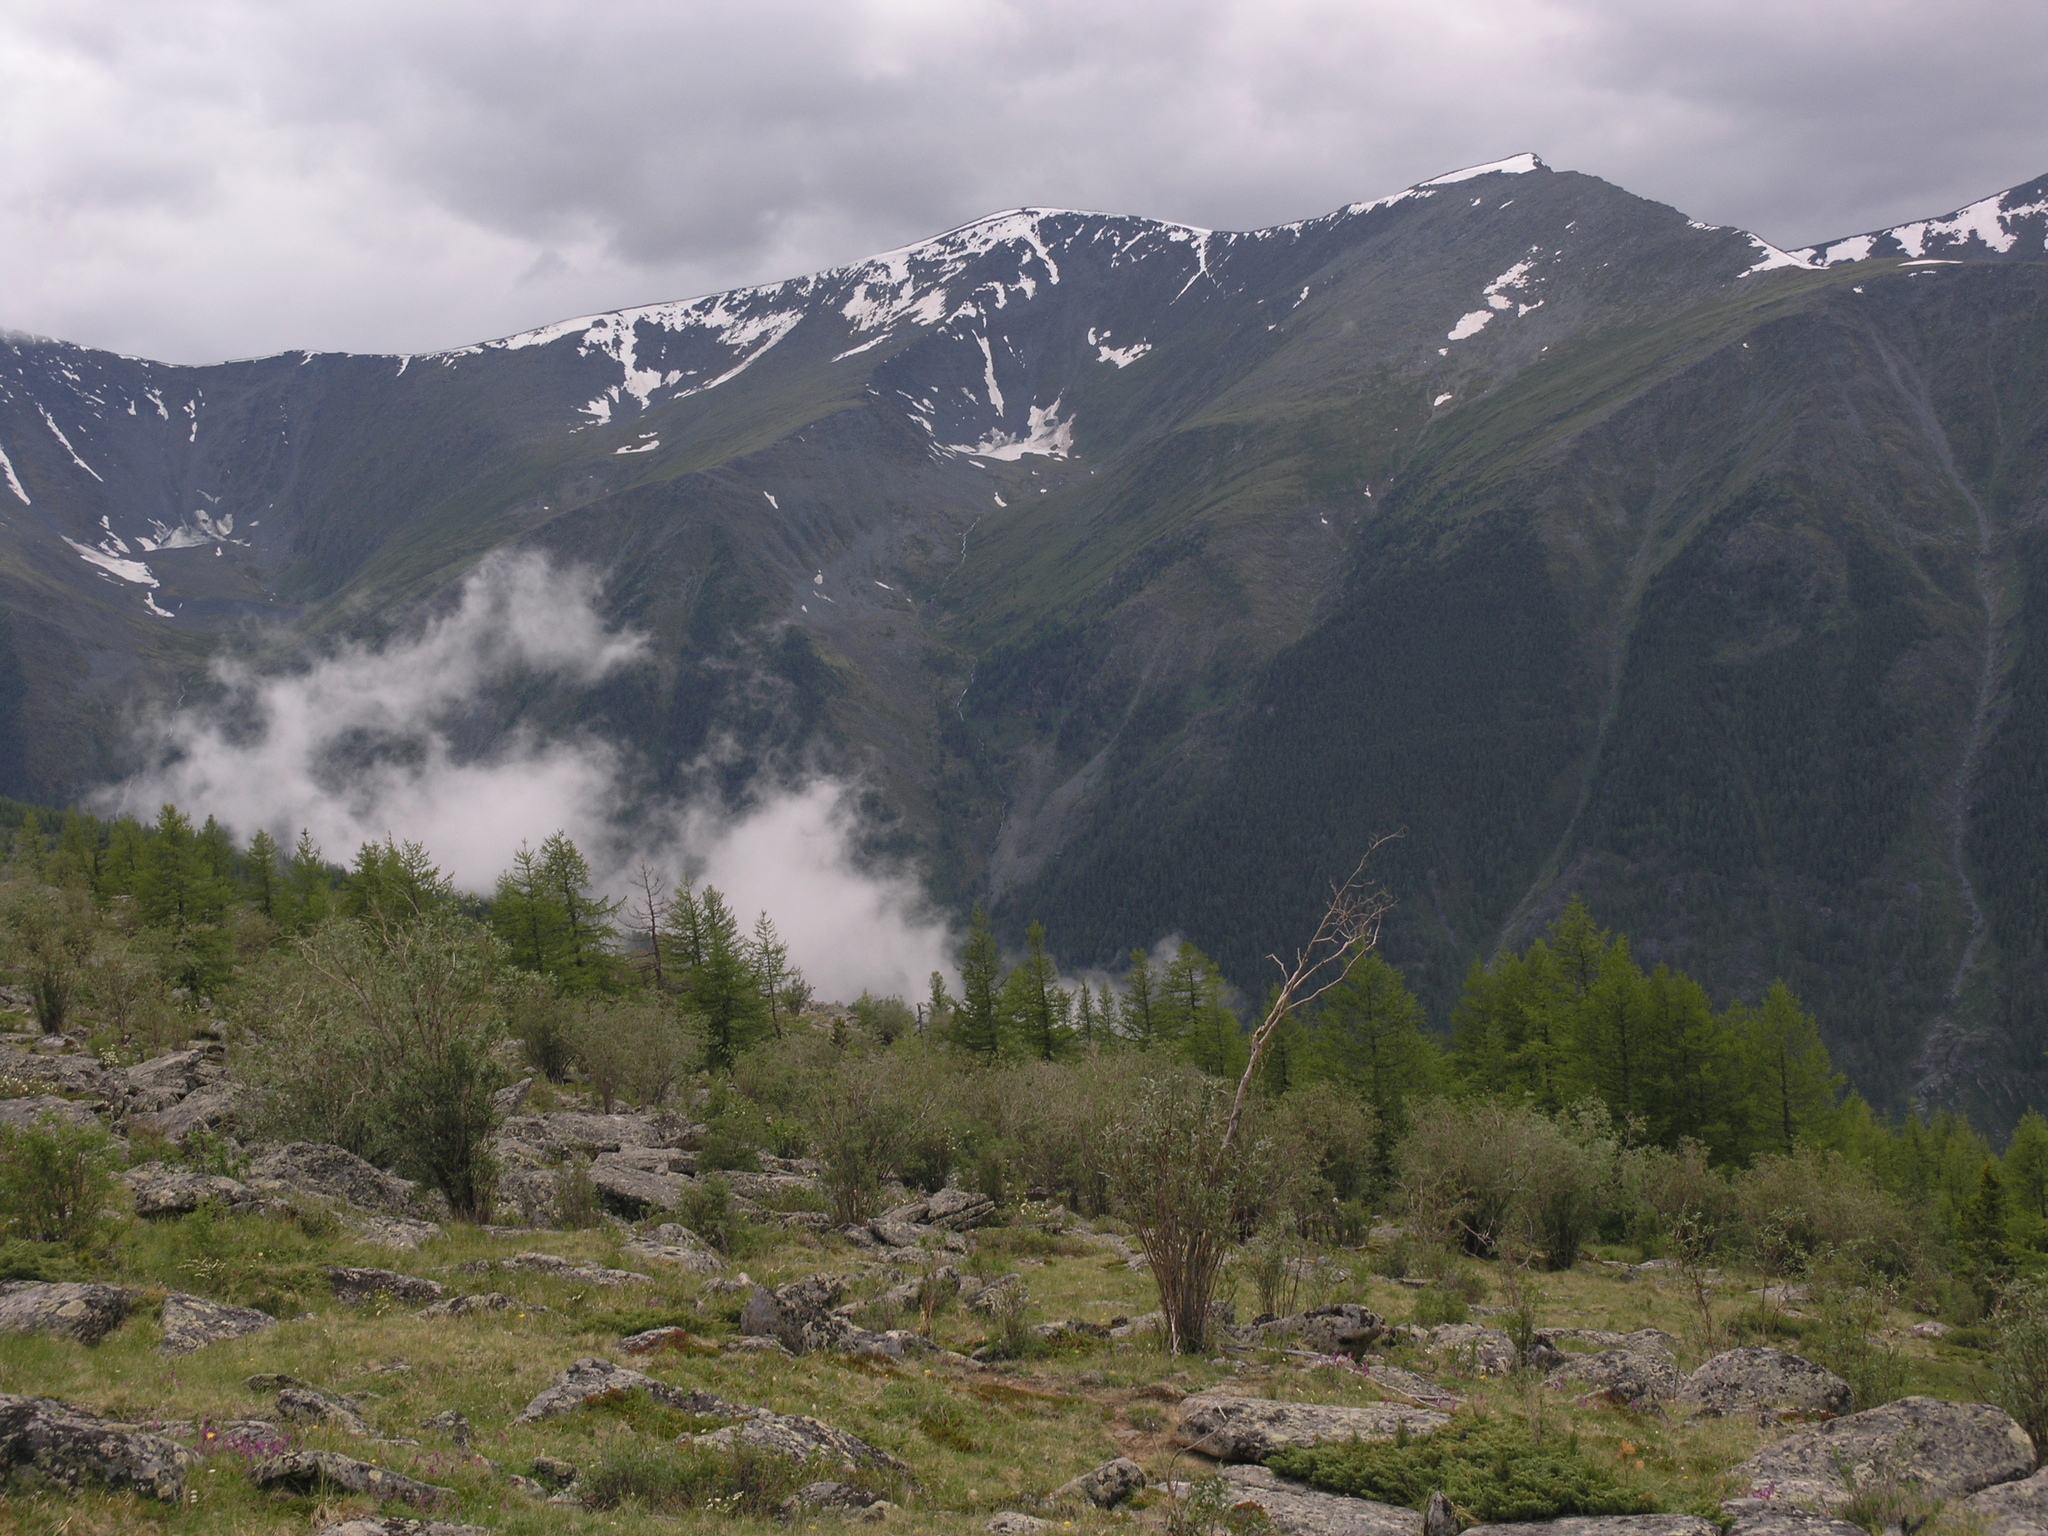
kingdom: Plantae
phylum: Tracheophyta
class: Pinopsida
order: Pinales
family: Pinaceae
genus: Larix
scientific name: Larix sibirica
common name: Siberian larch
